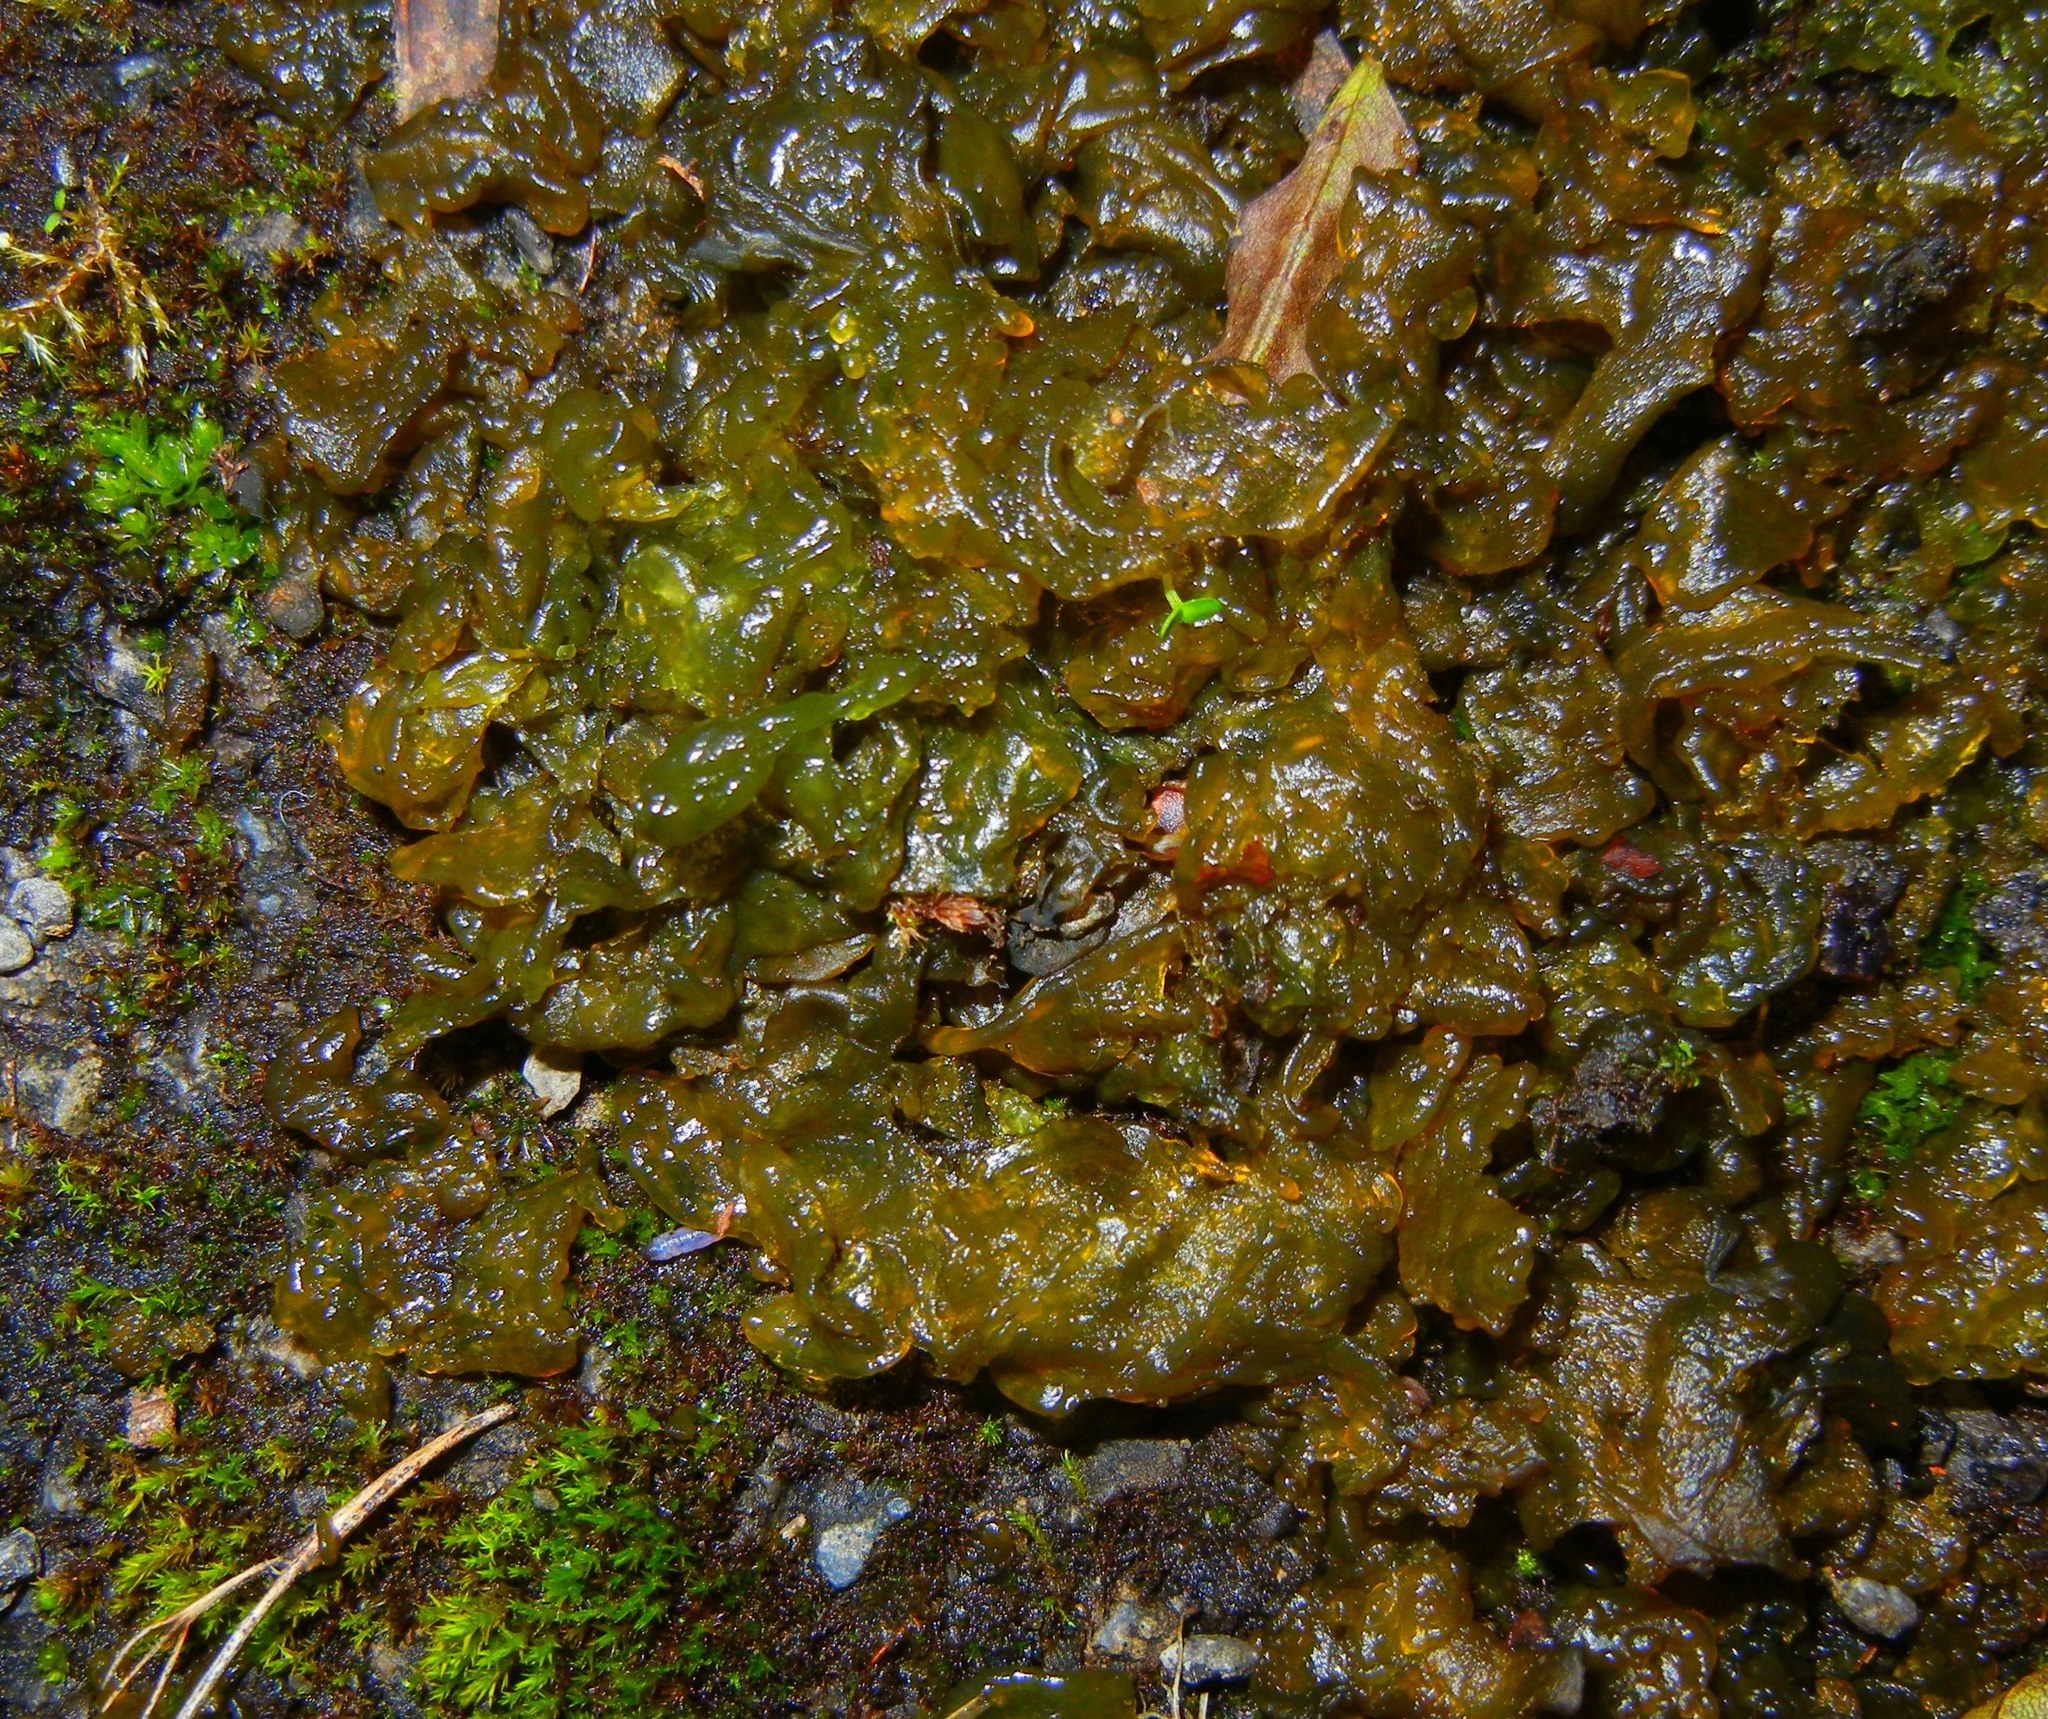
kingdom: Bacteria
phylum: Cyanobacteria
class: Cyanobacteriia
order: Cyanobacteriales
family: Nostocaceae
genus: Nostoc
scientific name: Nostoc commune
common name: Star jelly
